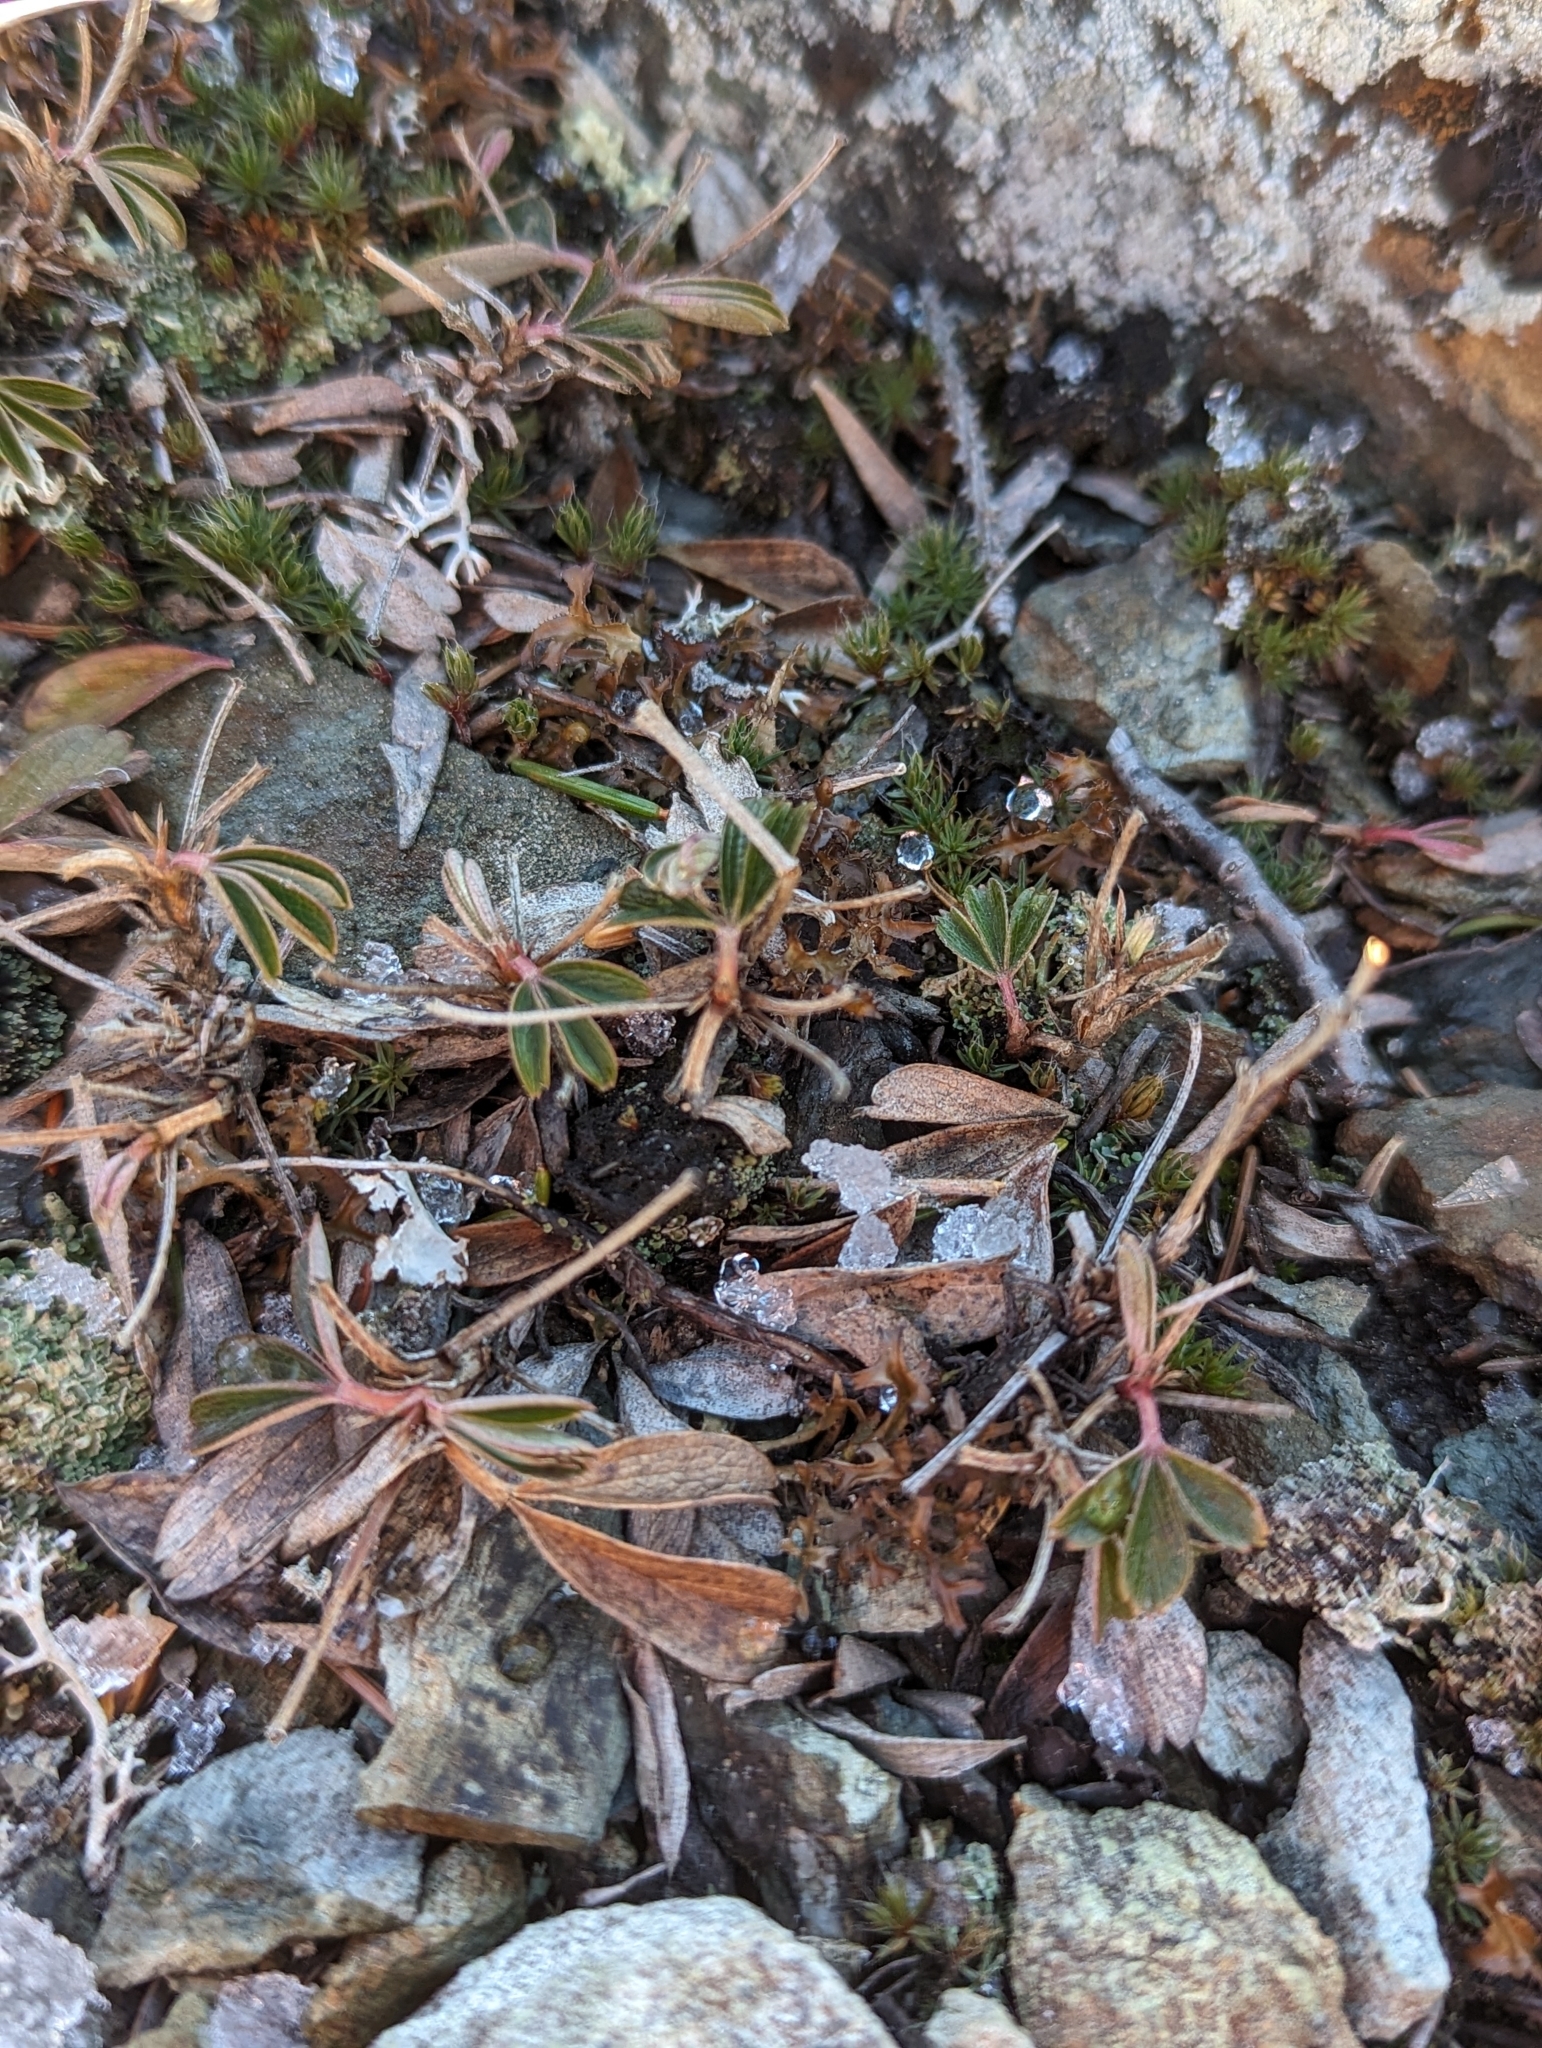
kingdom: Plantae
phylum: Tracheophyta
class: Magnoliopsida
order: Rosales
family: Rosaceae
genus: Sibbaldia
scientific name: Sibbaldia tridentata
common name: Three-toothed cinquefoil
